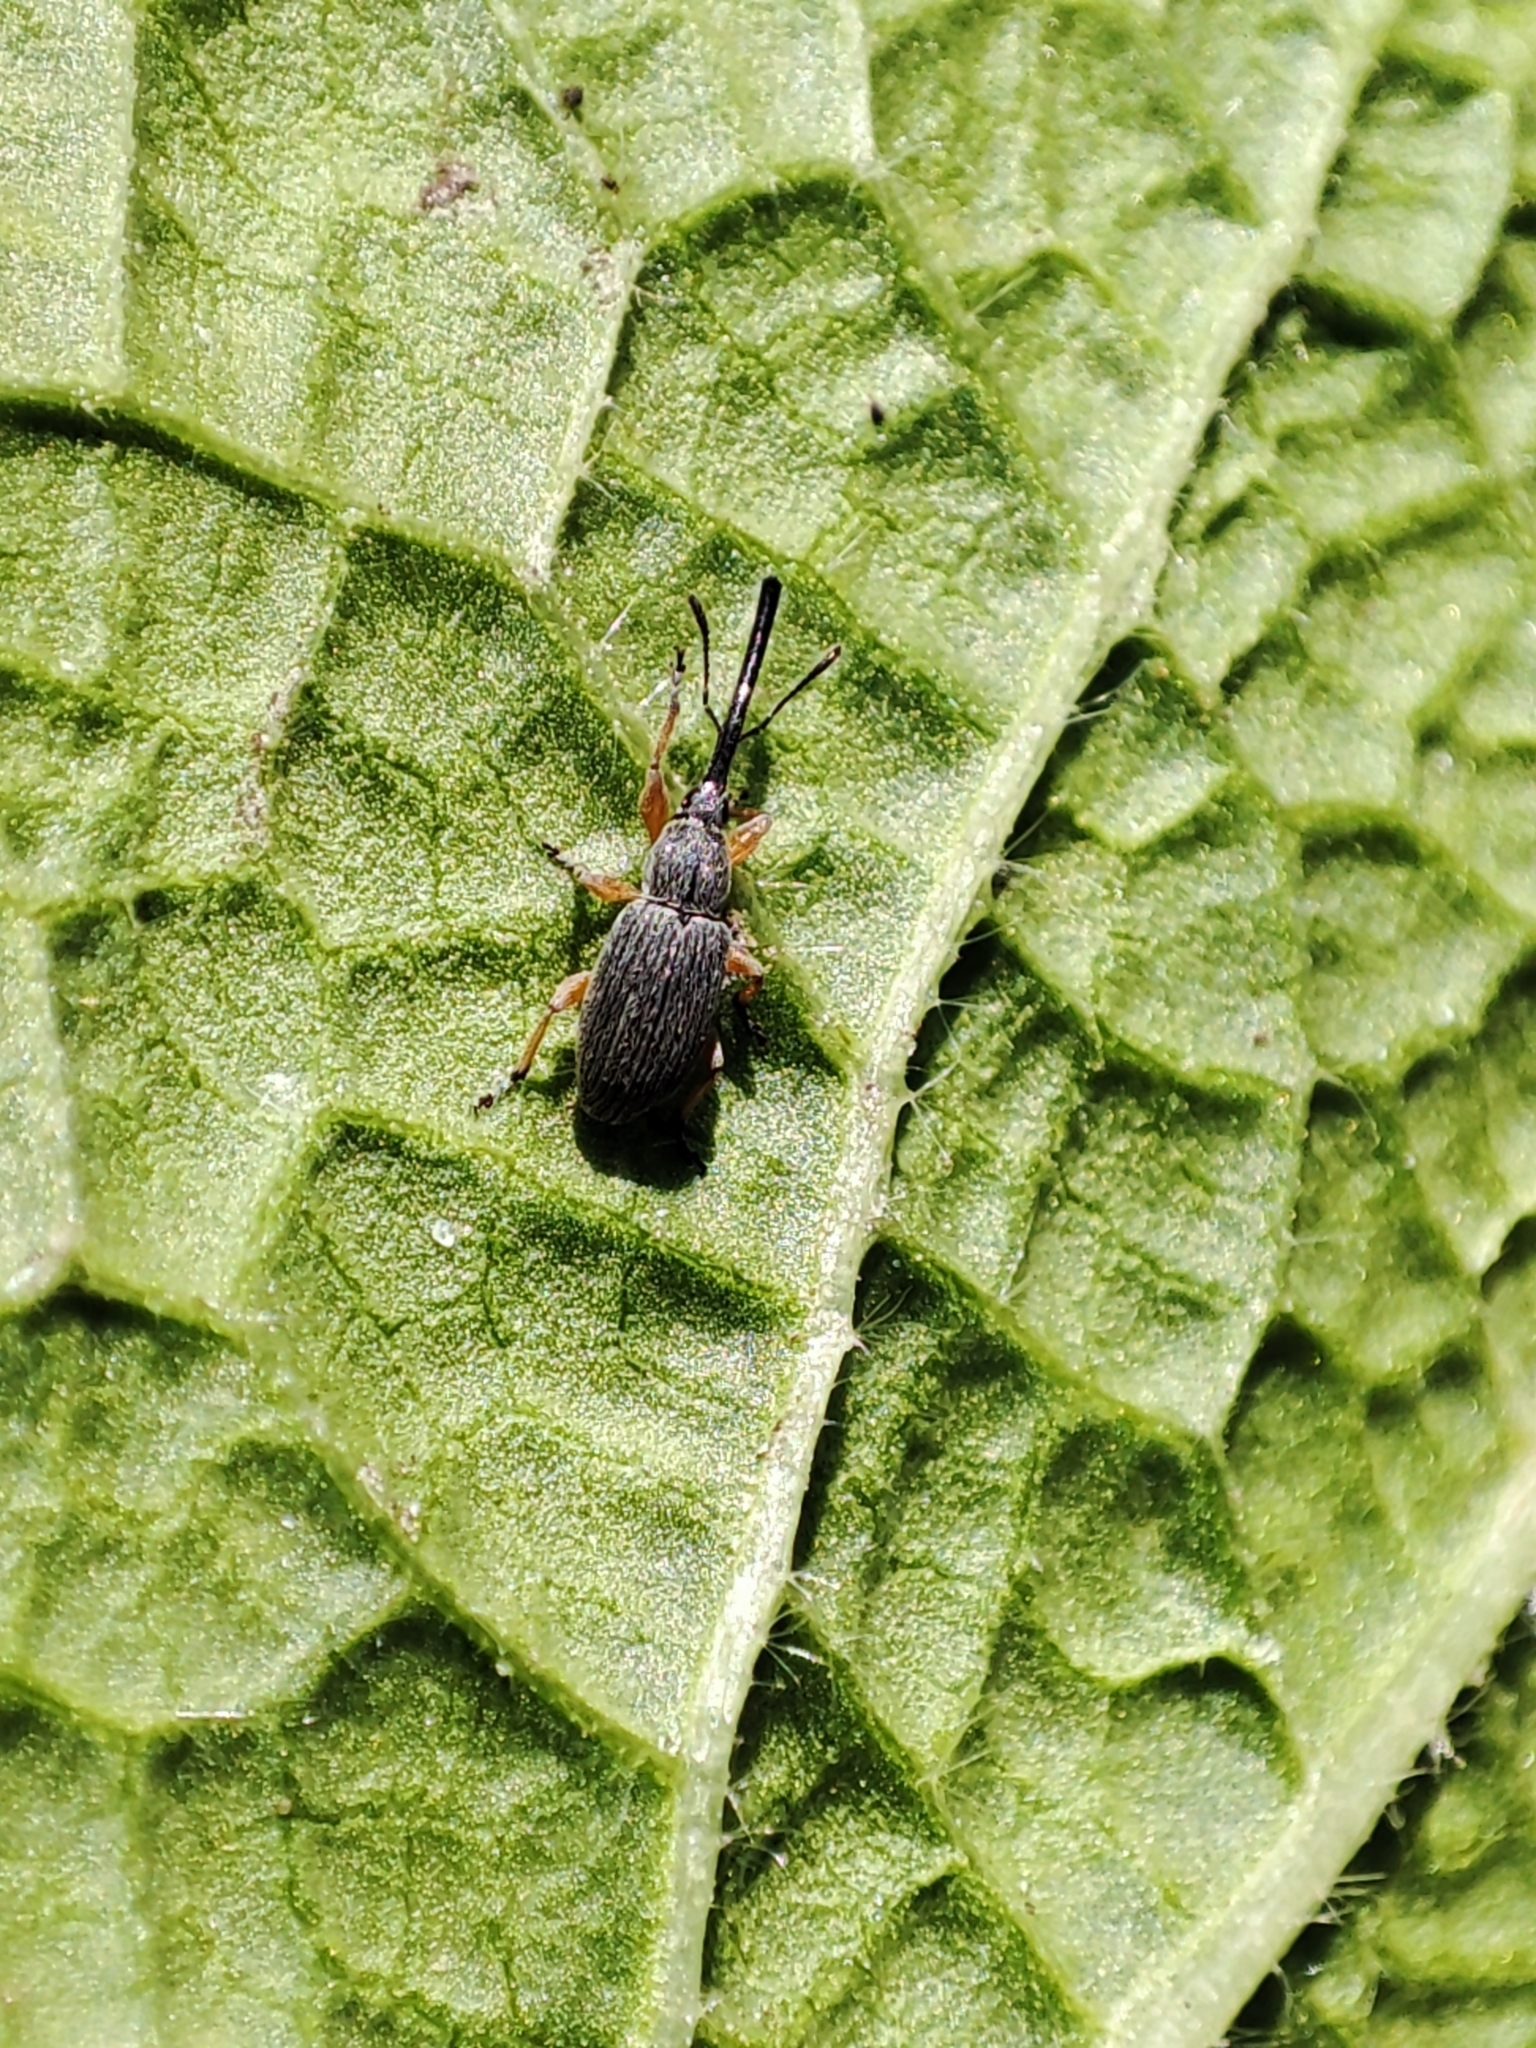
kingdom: Animalia
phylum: Arthropoda
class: Insecta
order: Coleoptera
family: Brentidae
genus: Rhopalapion
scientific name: Rhopalapion longirostre
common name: Hollyhock weevil
